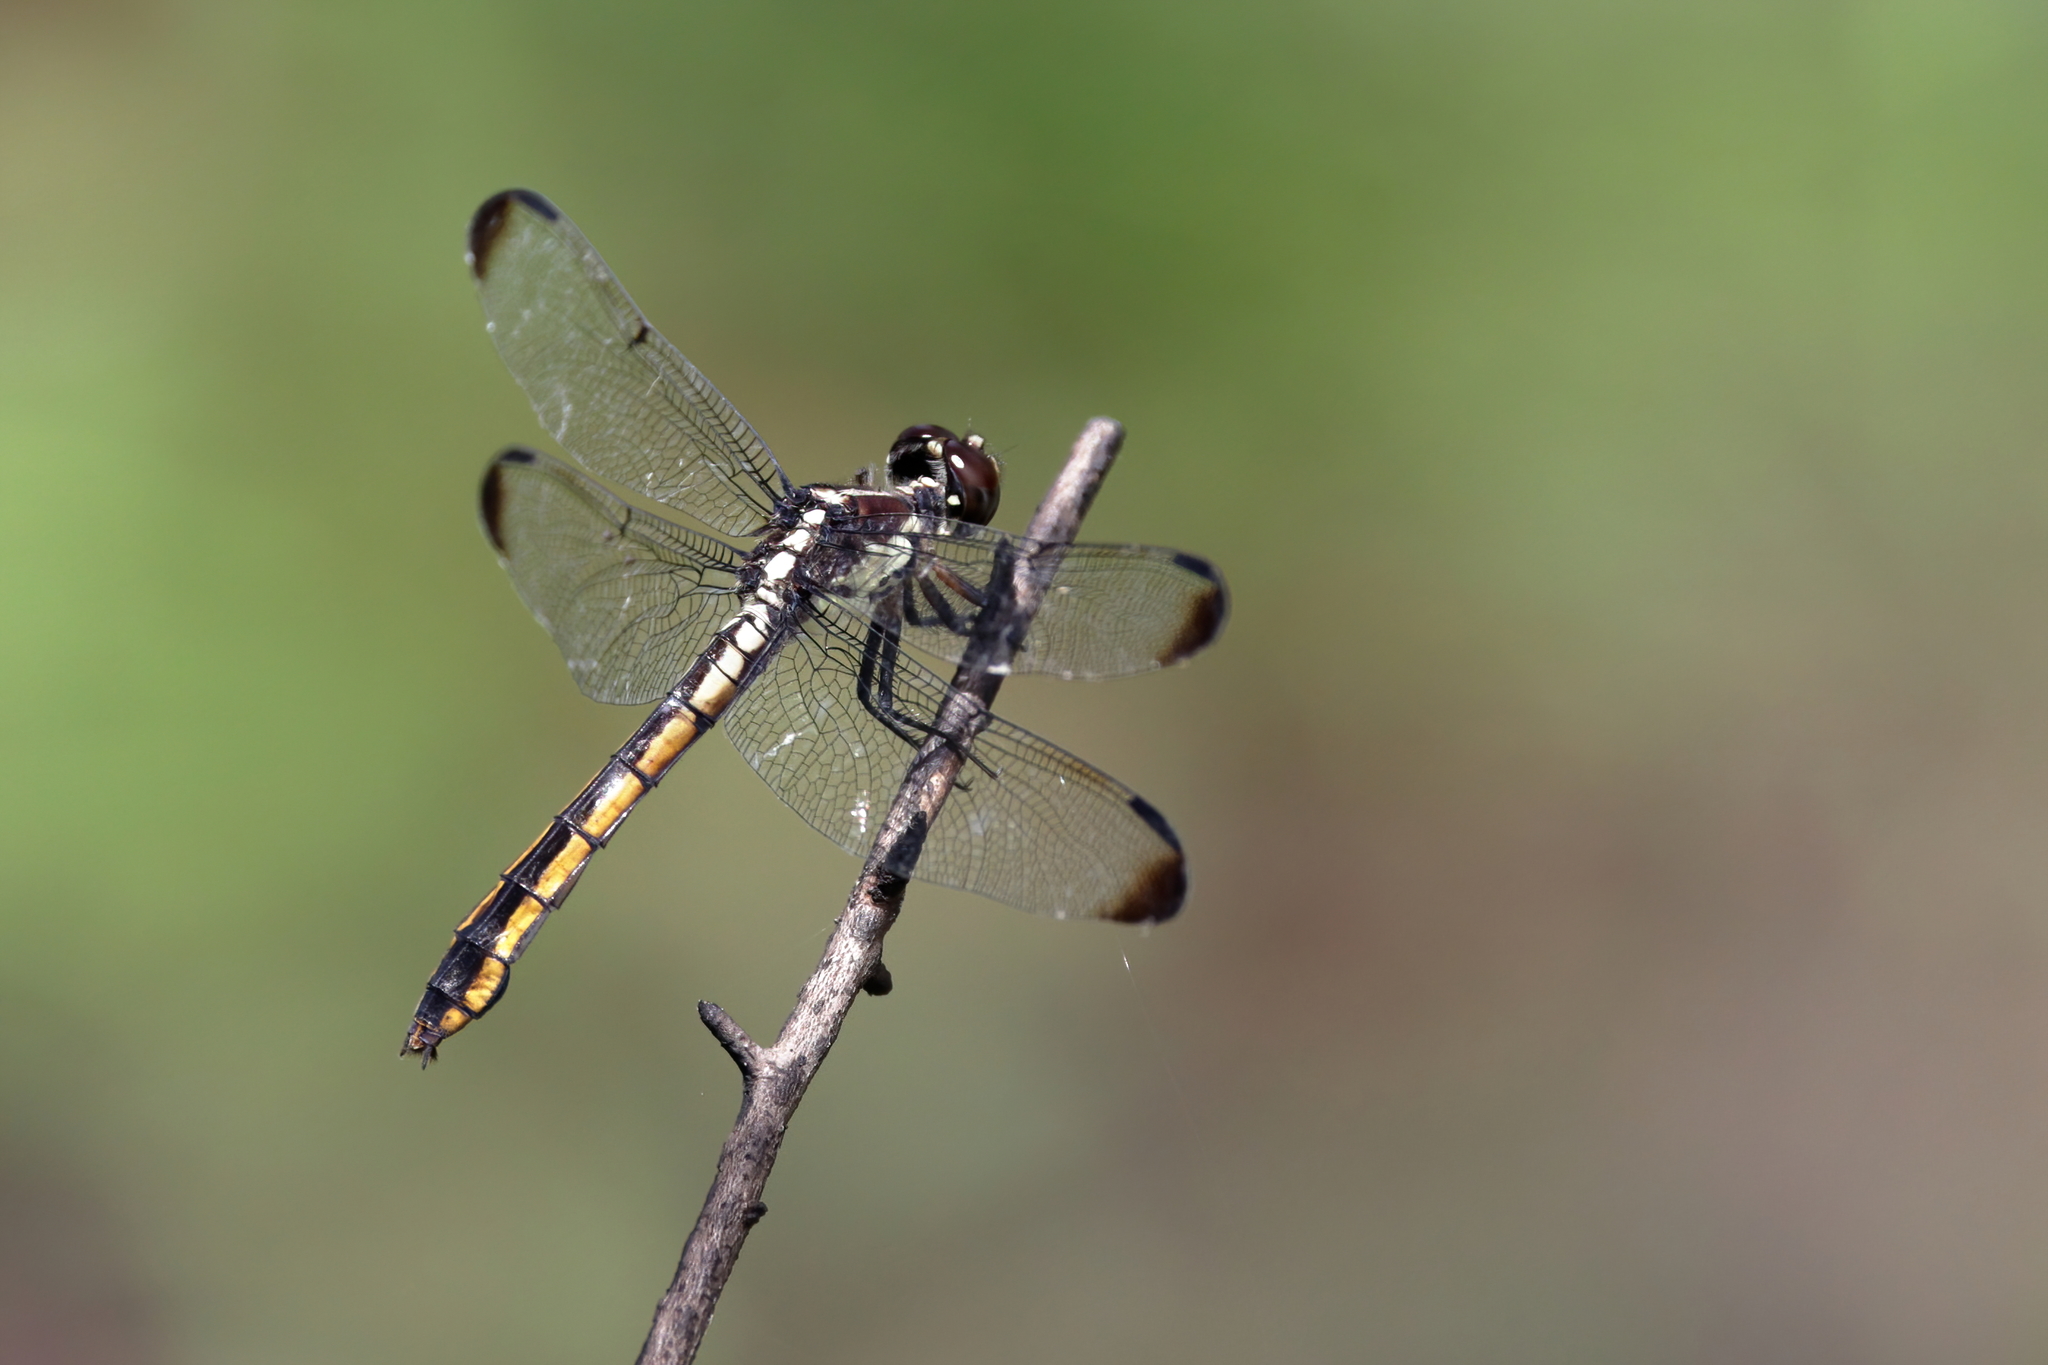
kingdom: Animalia
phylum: Arthropoda
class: Insecta
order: Odonata
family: Libellulidae
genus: Libellula
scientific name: Libellula incesta
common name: Slaty skimmer
